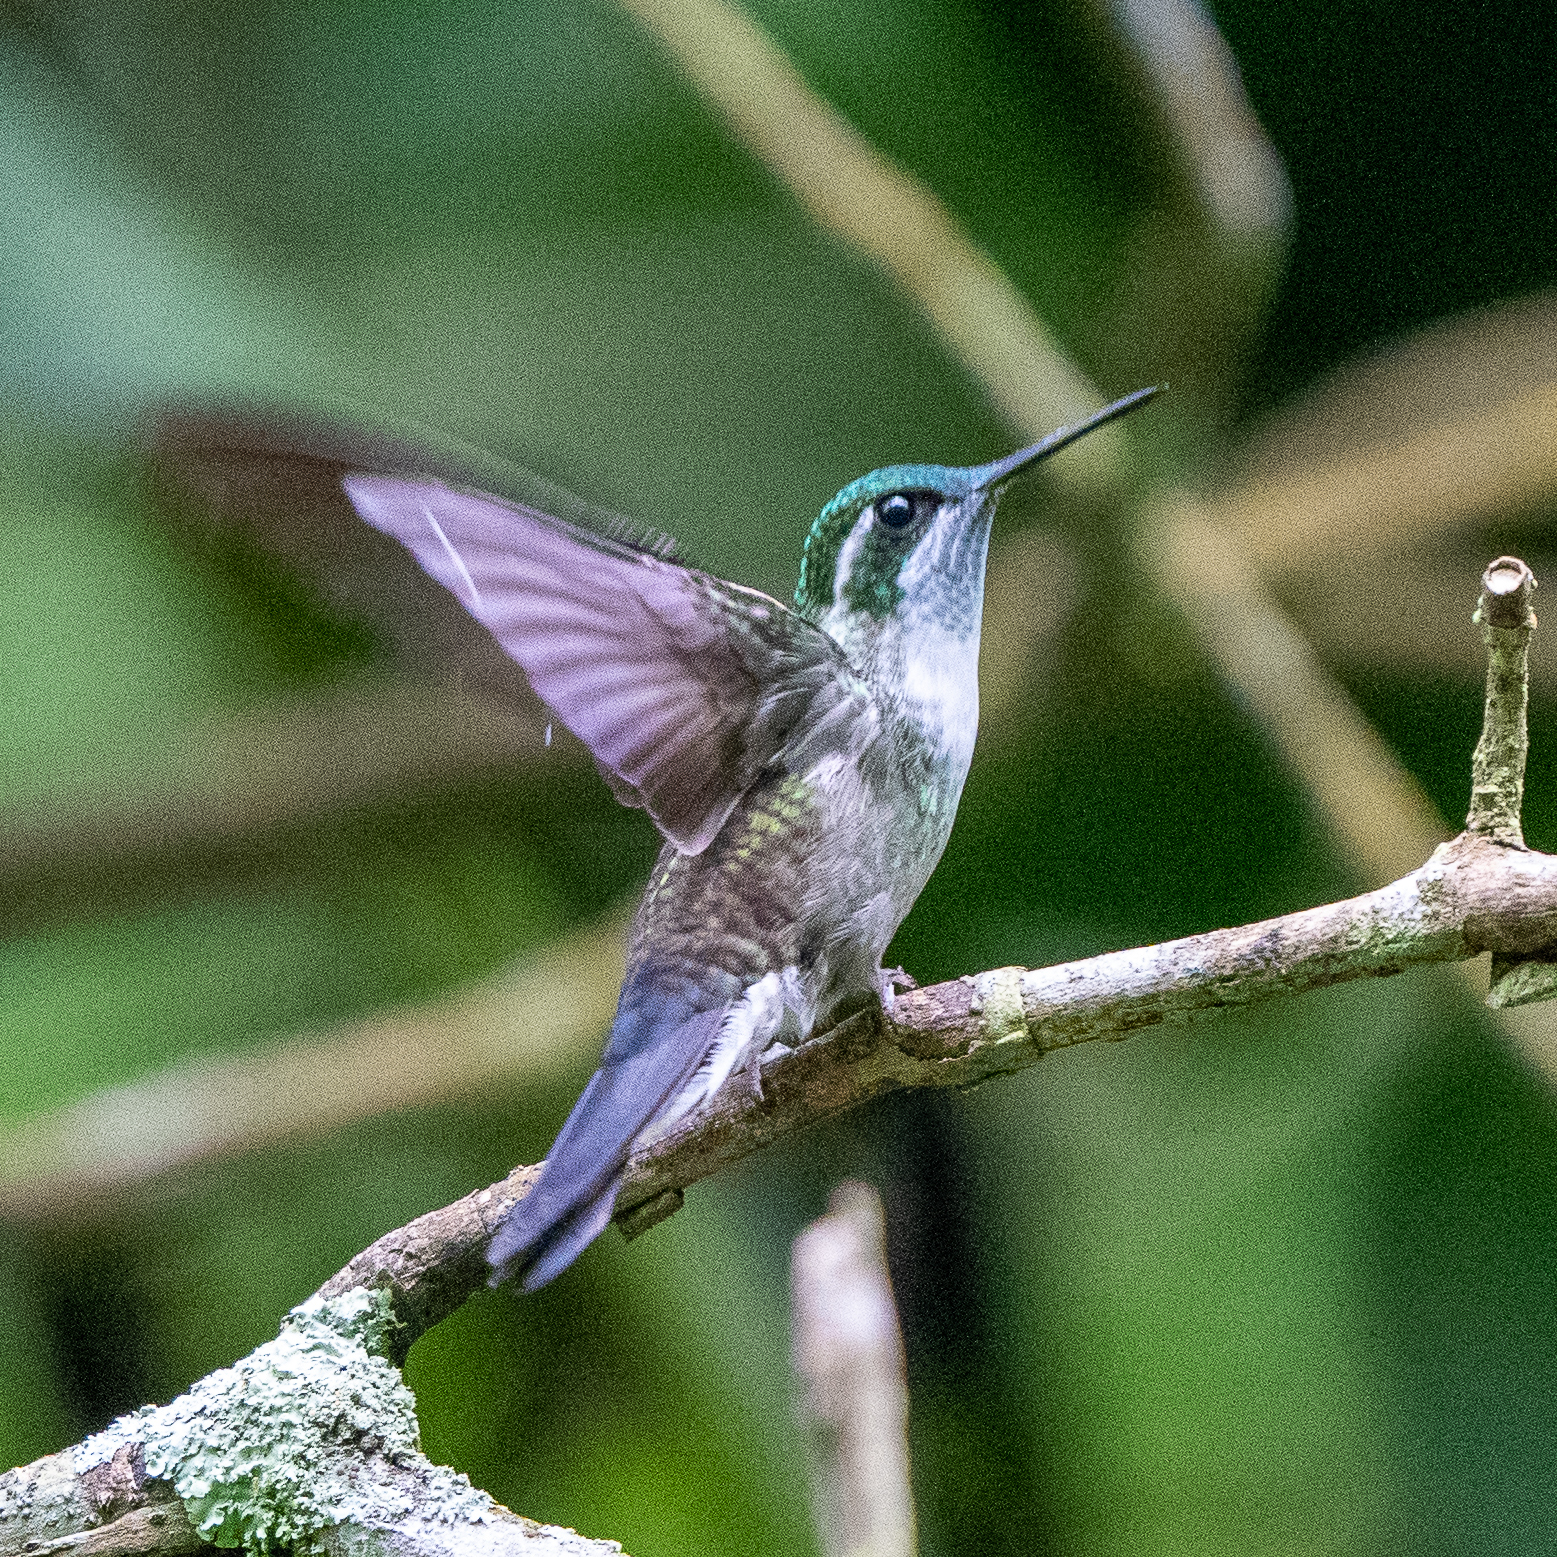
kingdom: Animalia
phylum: Chordata
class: Aves
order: Apodiformes
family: Trochilidae
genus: Lampornis
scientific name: Lampornis viridipallens
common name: Green-throated mountain-gem
